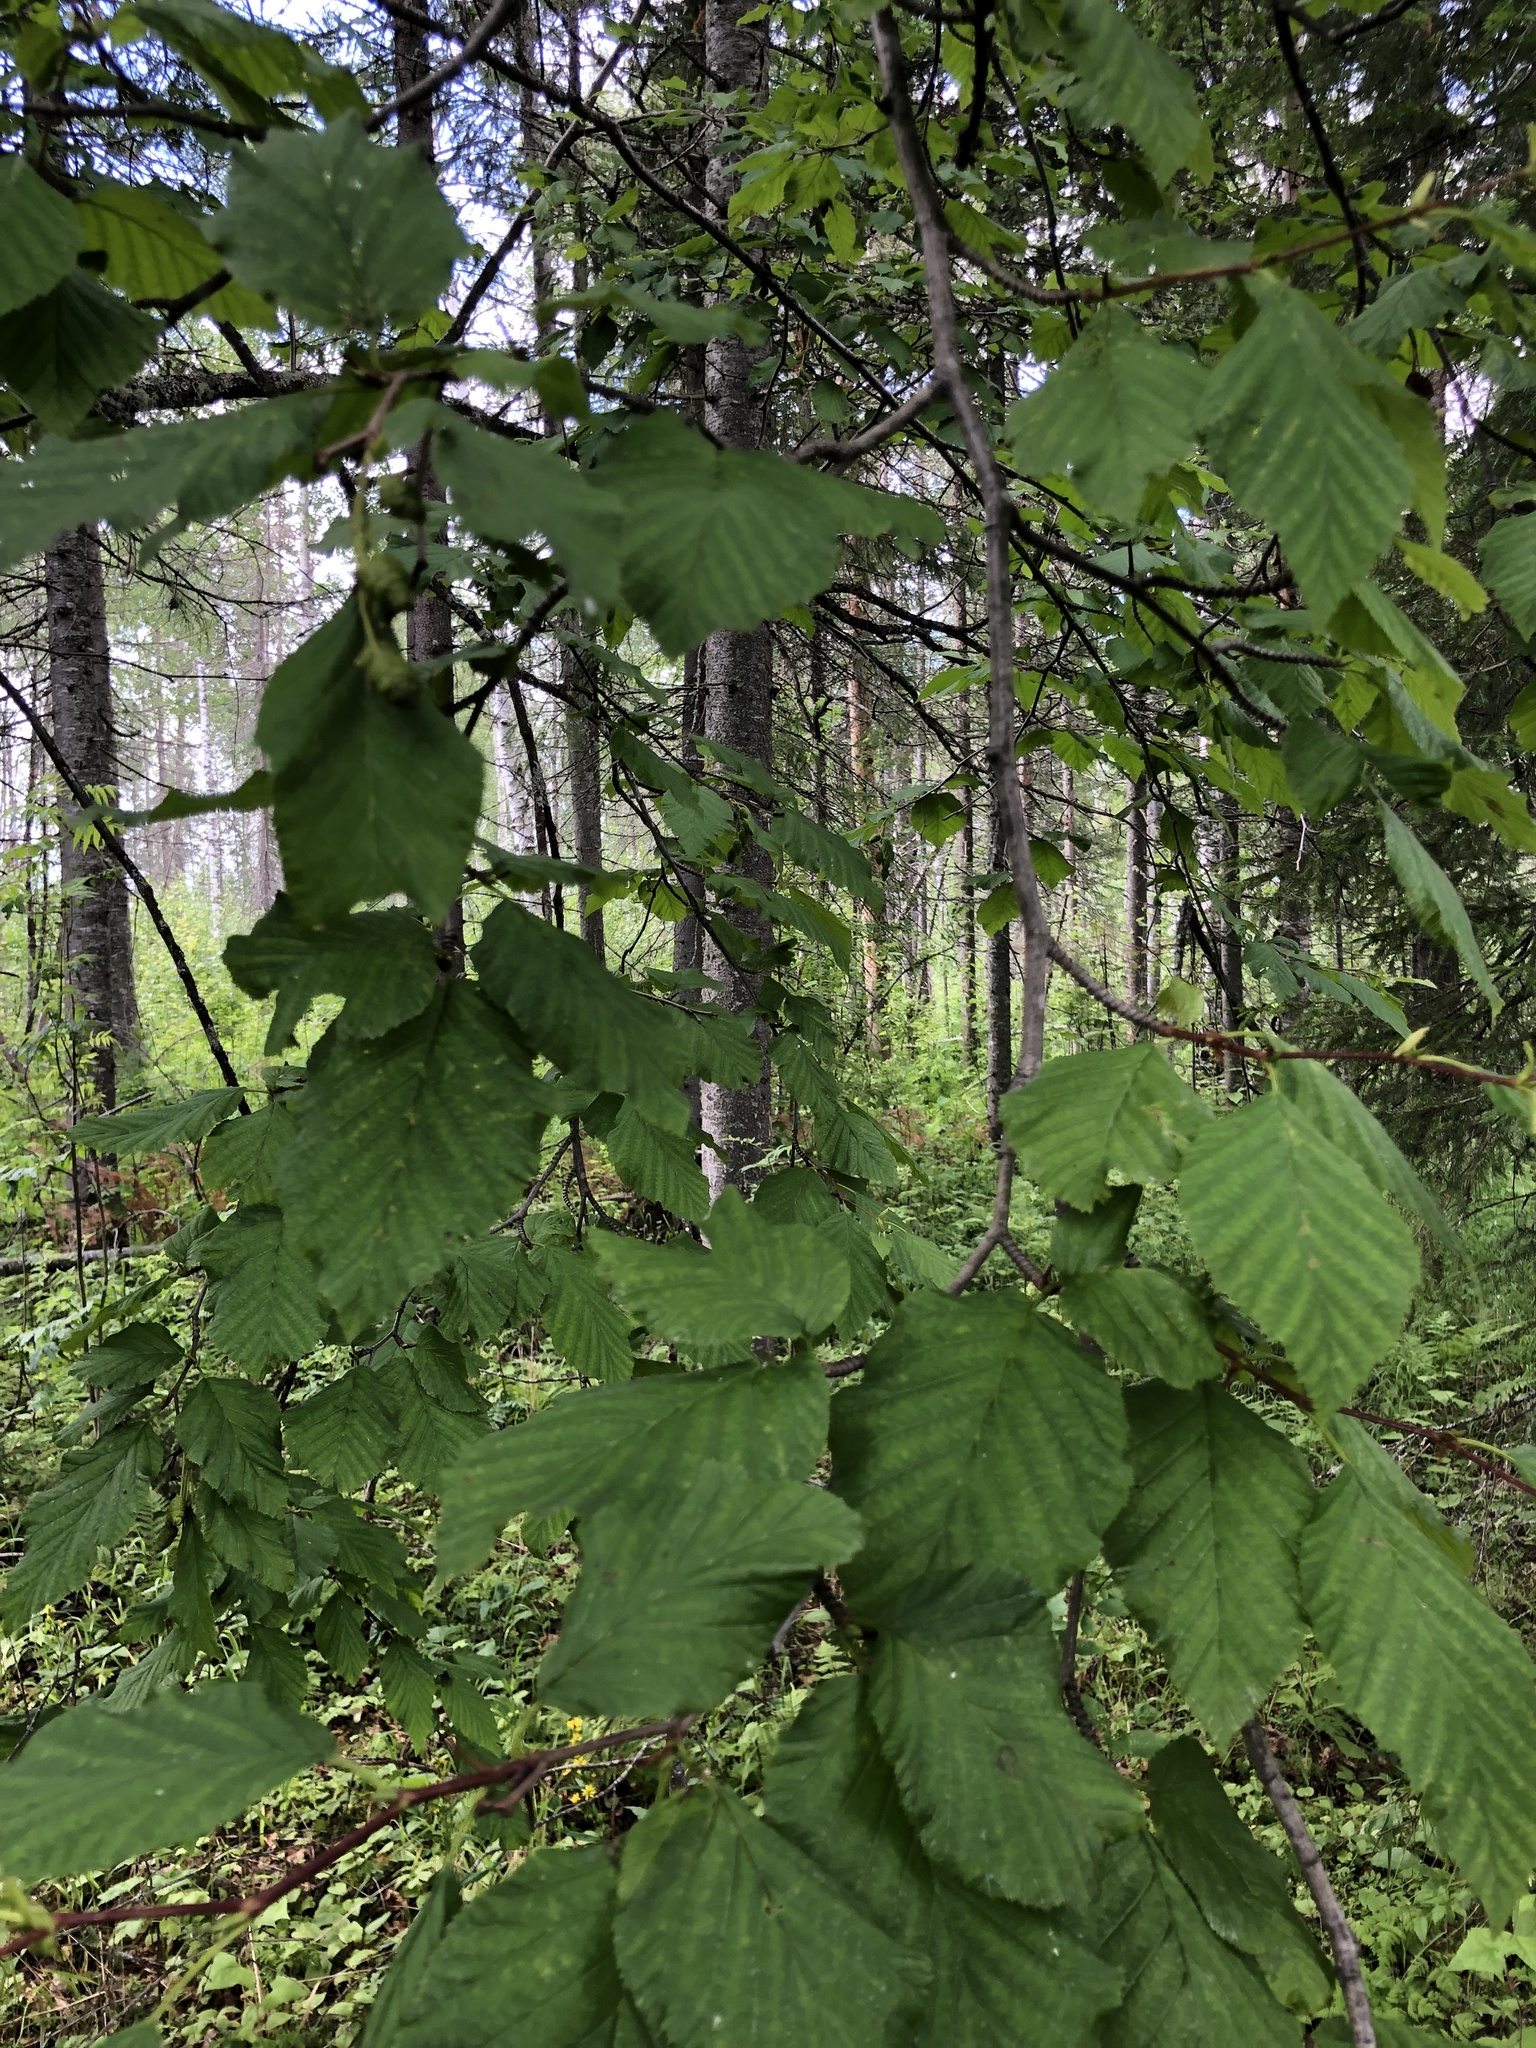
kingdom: Plantae
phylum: Tracheophyta
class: Magnoliopsida
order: Fagales
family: Betulaceae
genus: Alnus
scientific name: Alnus alnobetula
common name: Green alder
